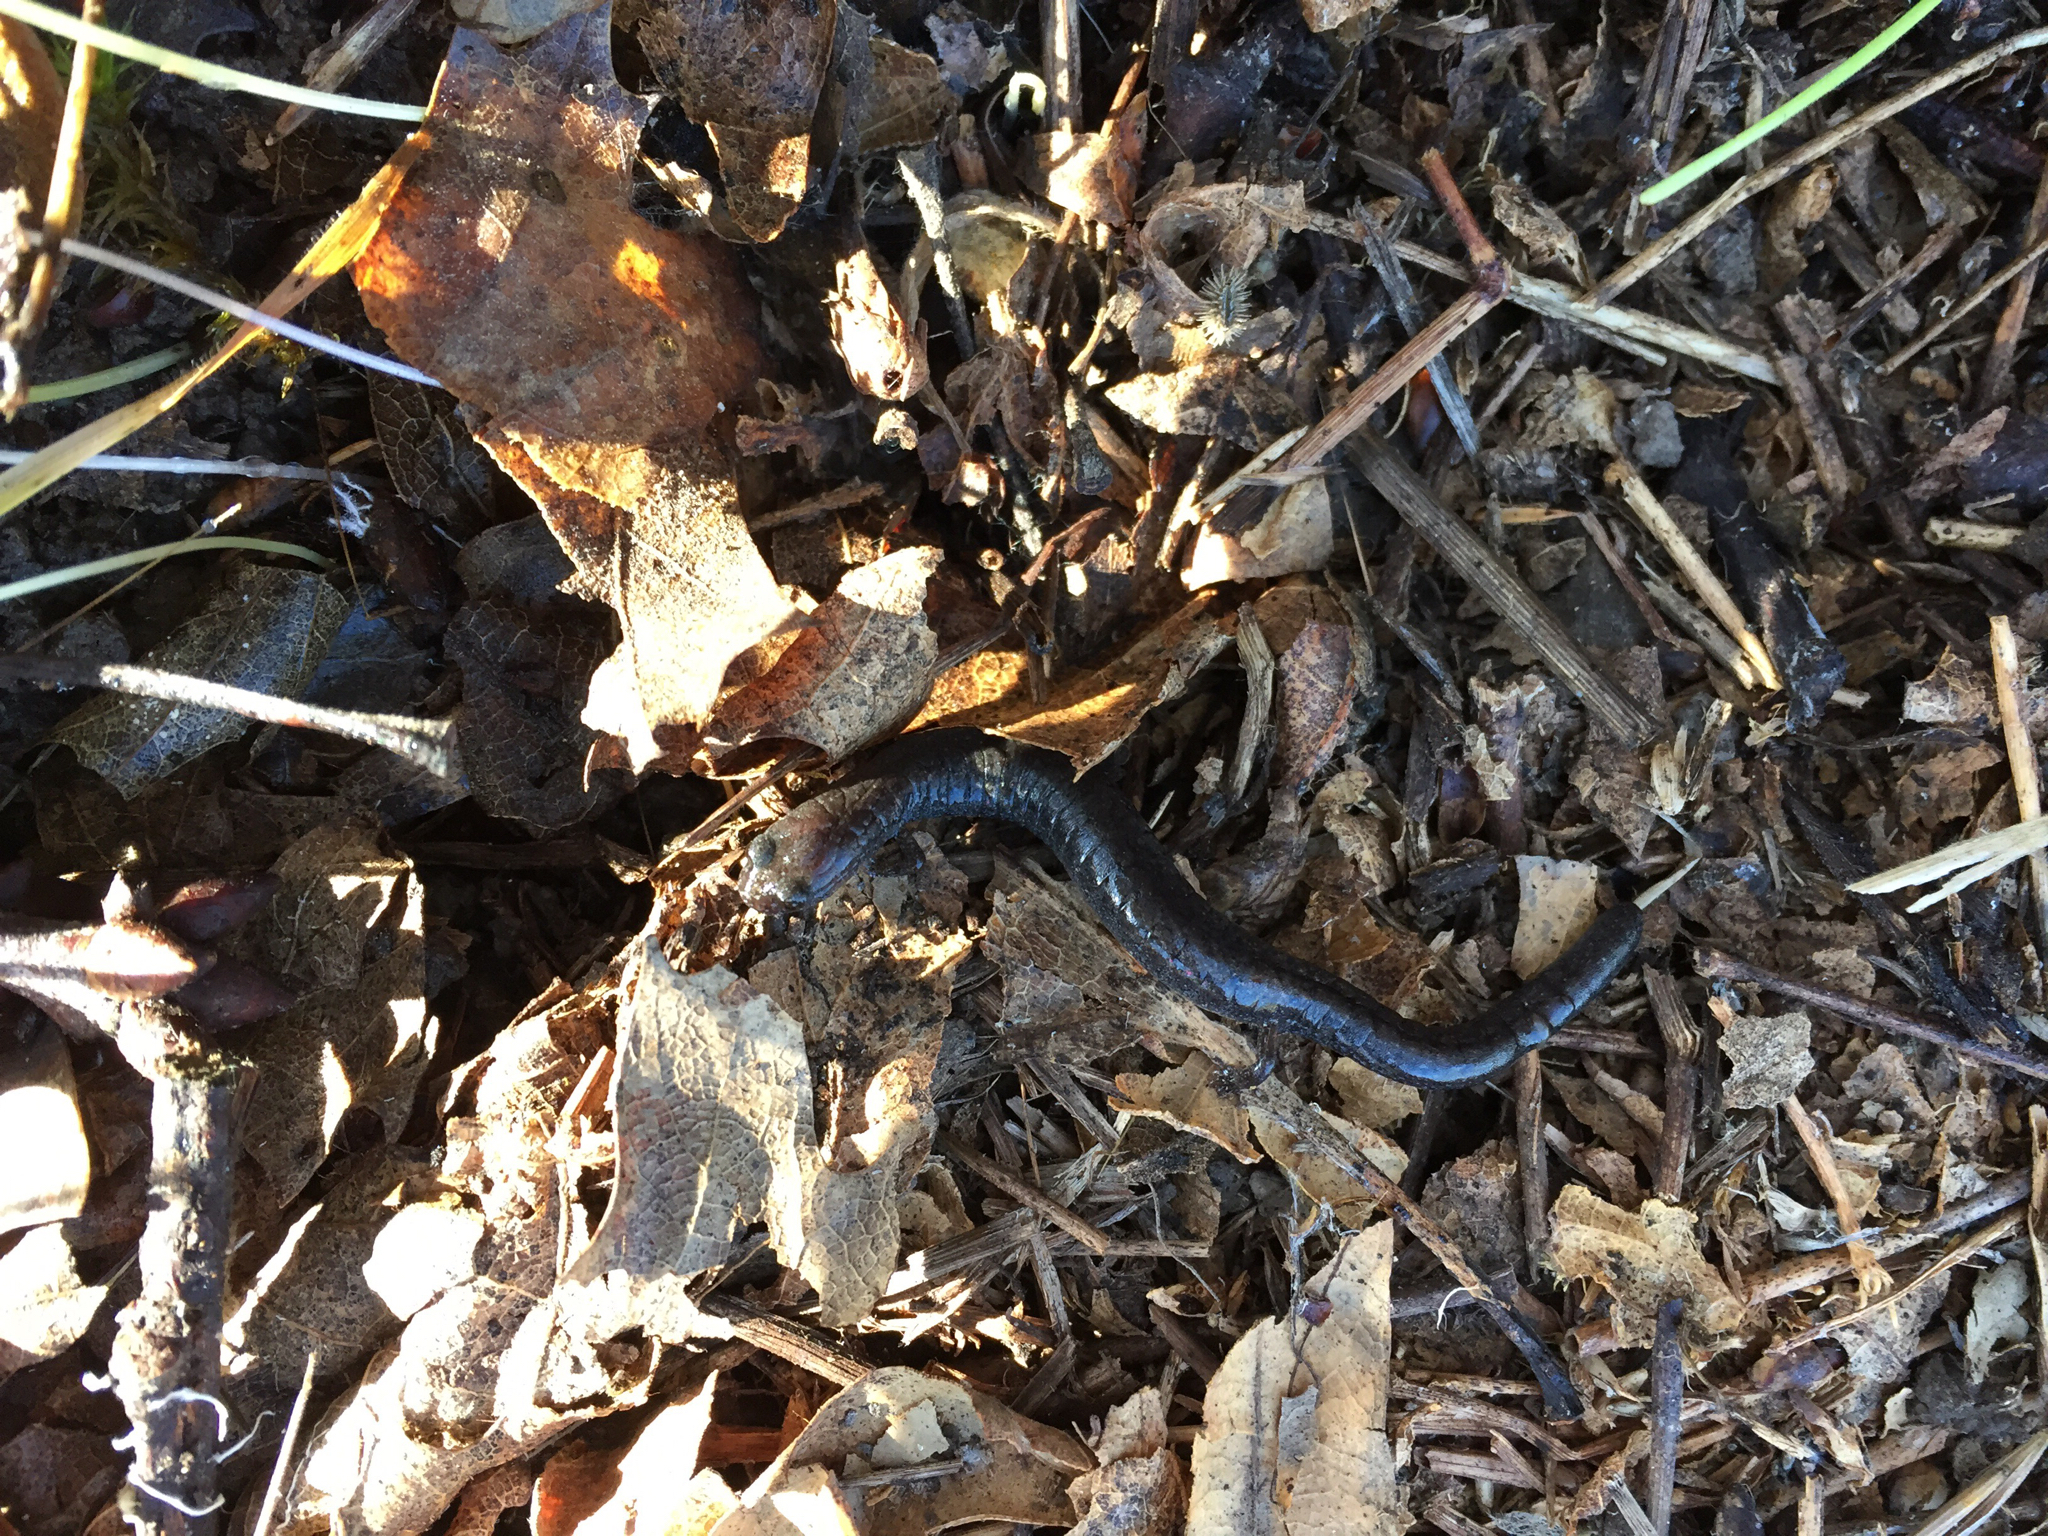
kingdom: Animalia
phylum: Chordata
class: Amphibia
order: Caudata
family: Plethodontidae
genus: Batrachoseps
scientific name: Batrachoseps attenuatus
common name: California slender salamander
